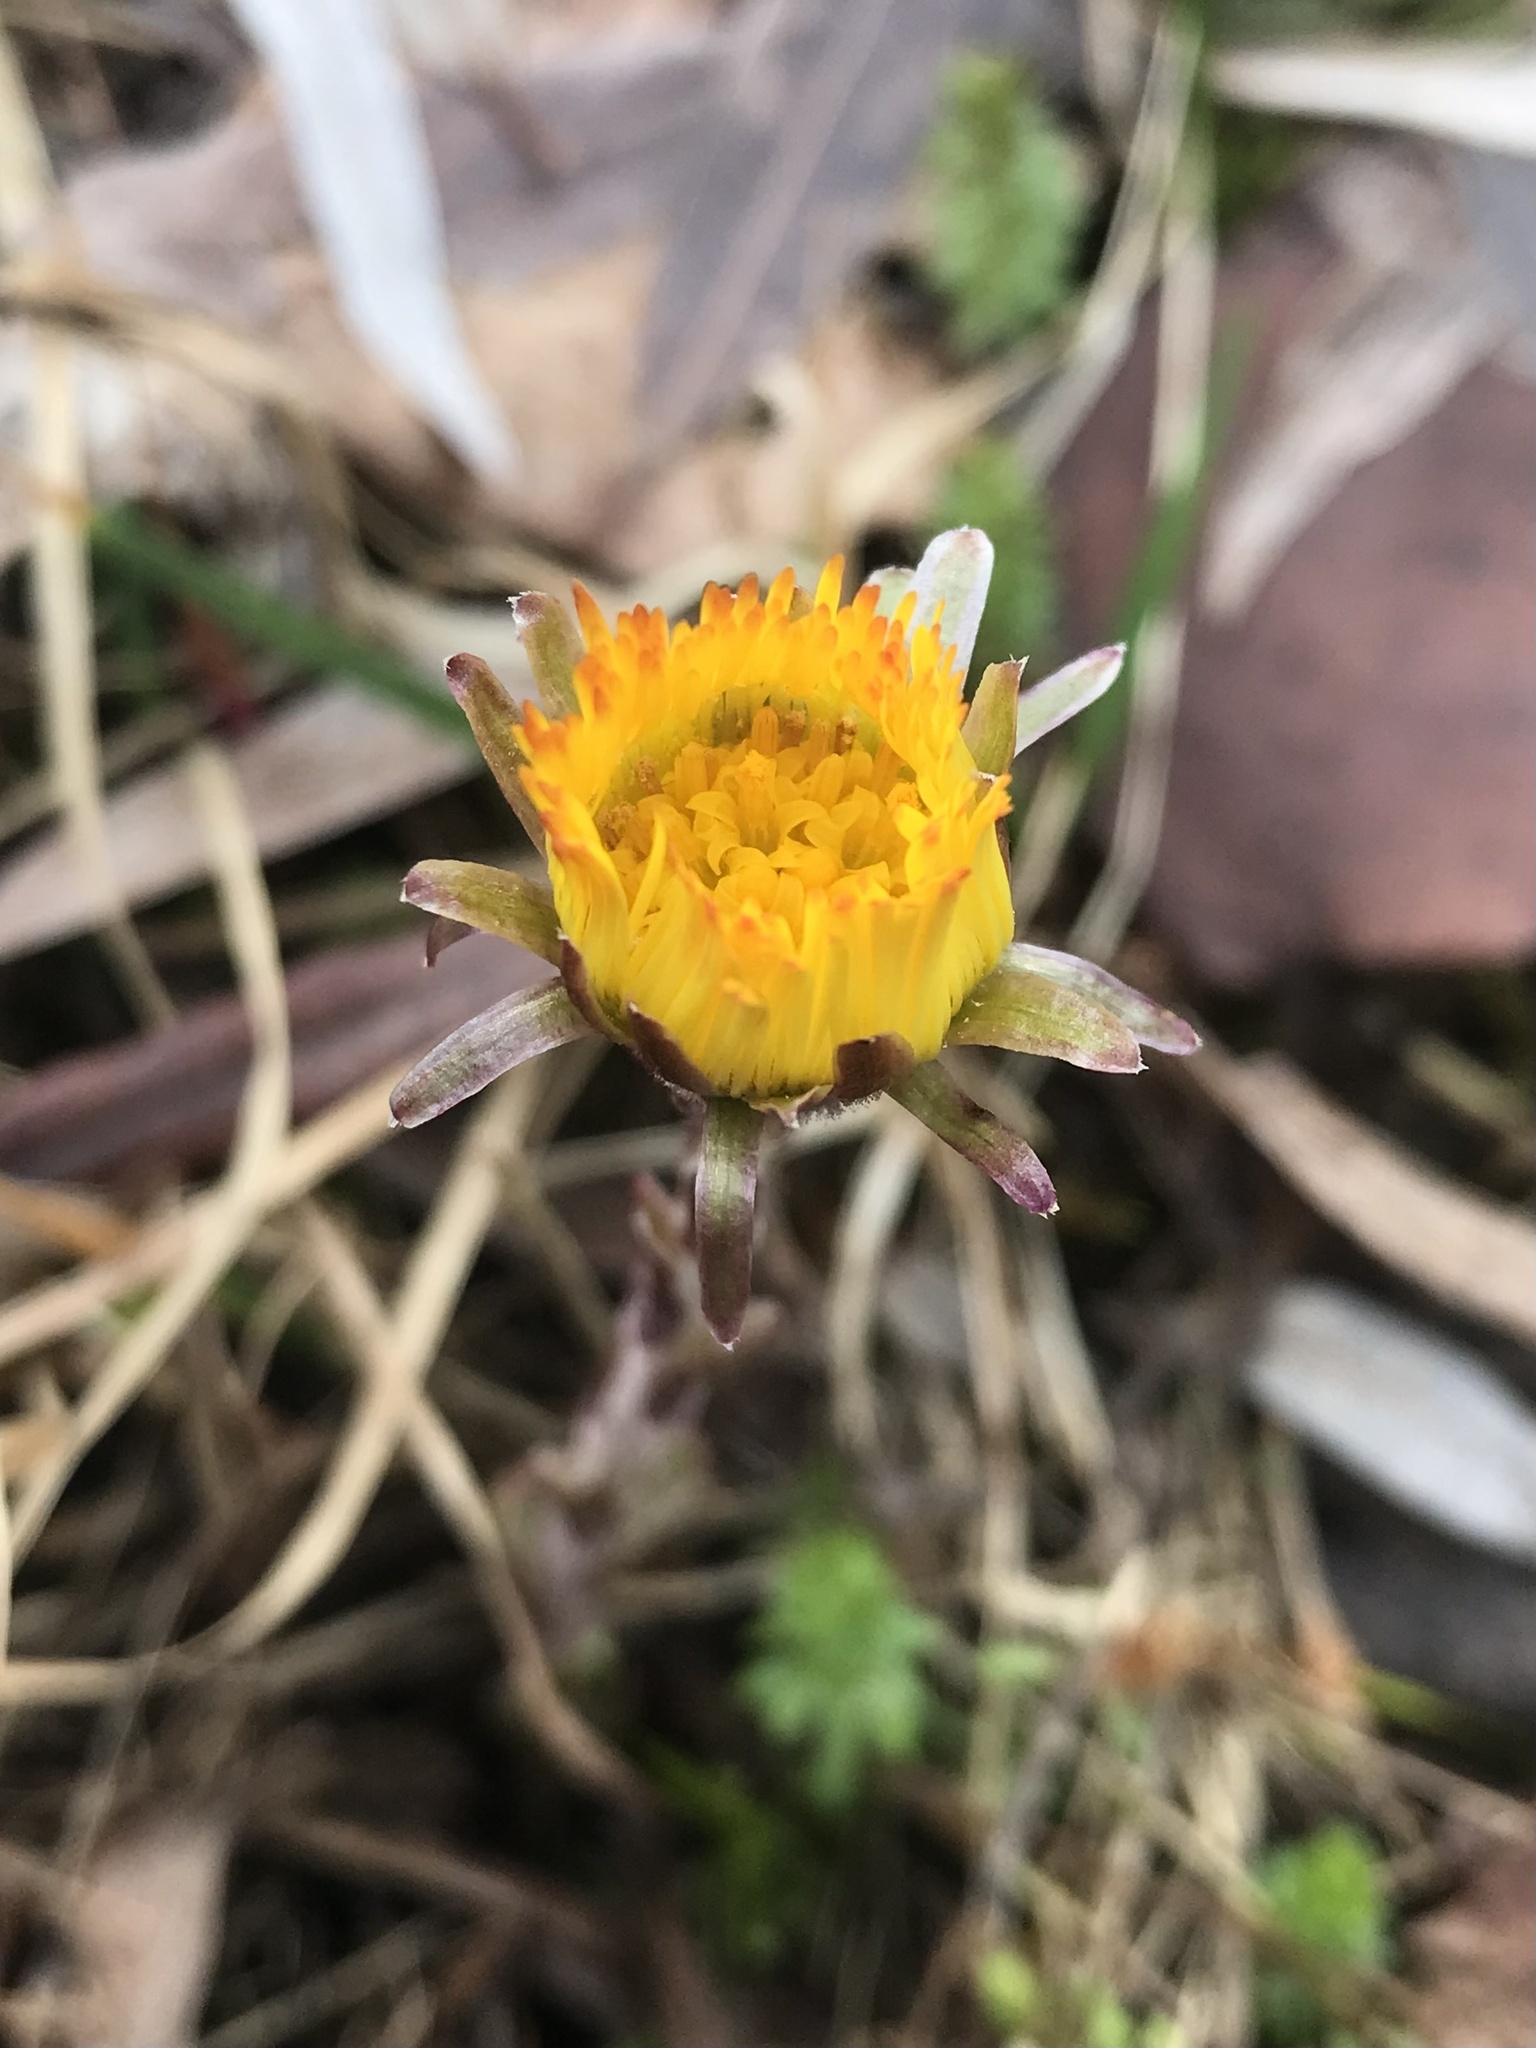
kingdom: Plantae
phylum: Tracheophyta
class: Magnoliopsida
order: Asterales
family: Asteraceae
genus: Tussilago
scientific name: Tussilago farfara
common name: Coltsfoot
